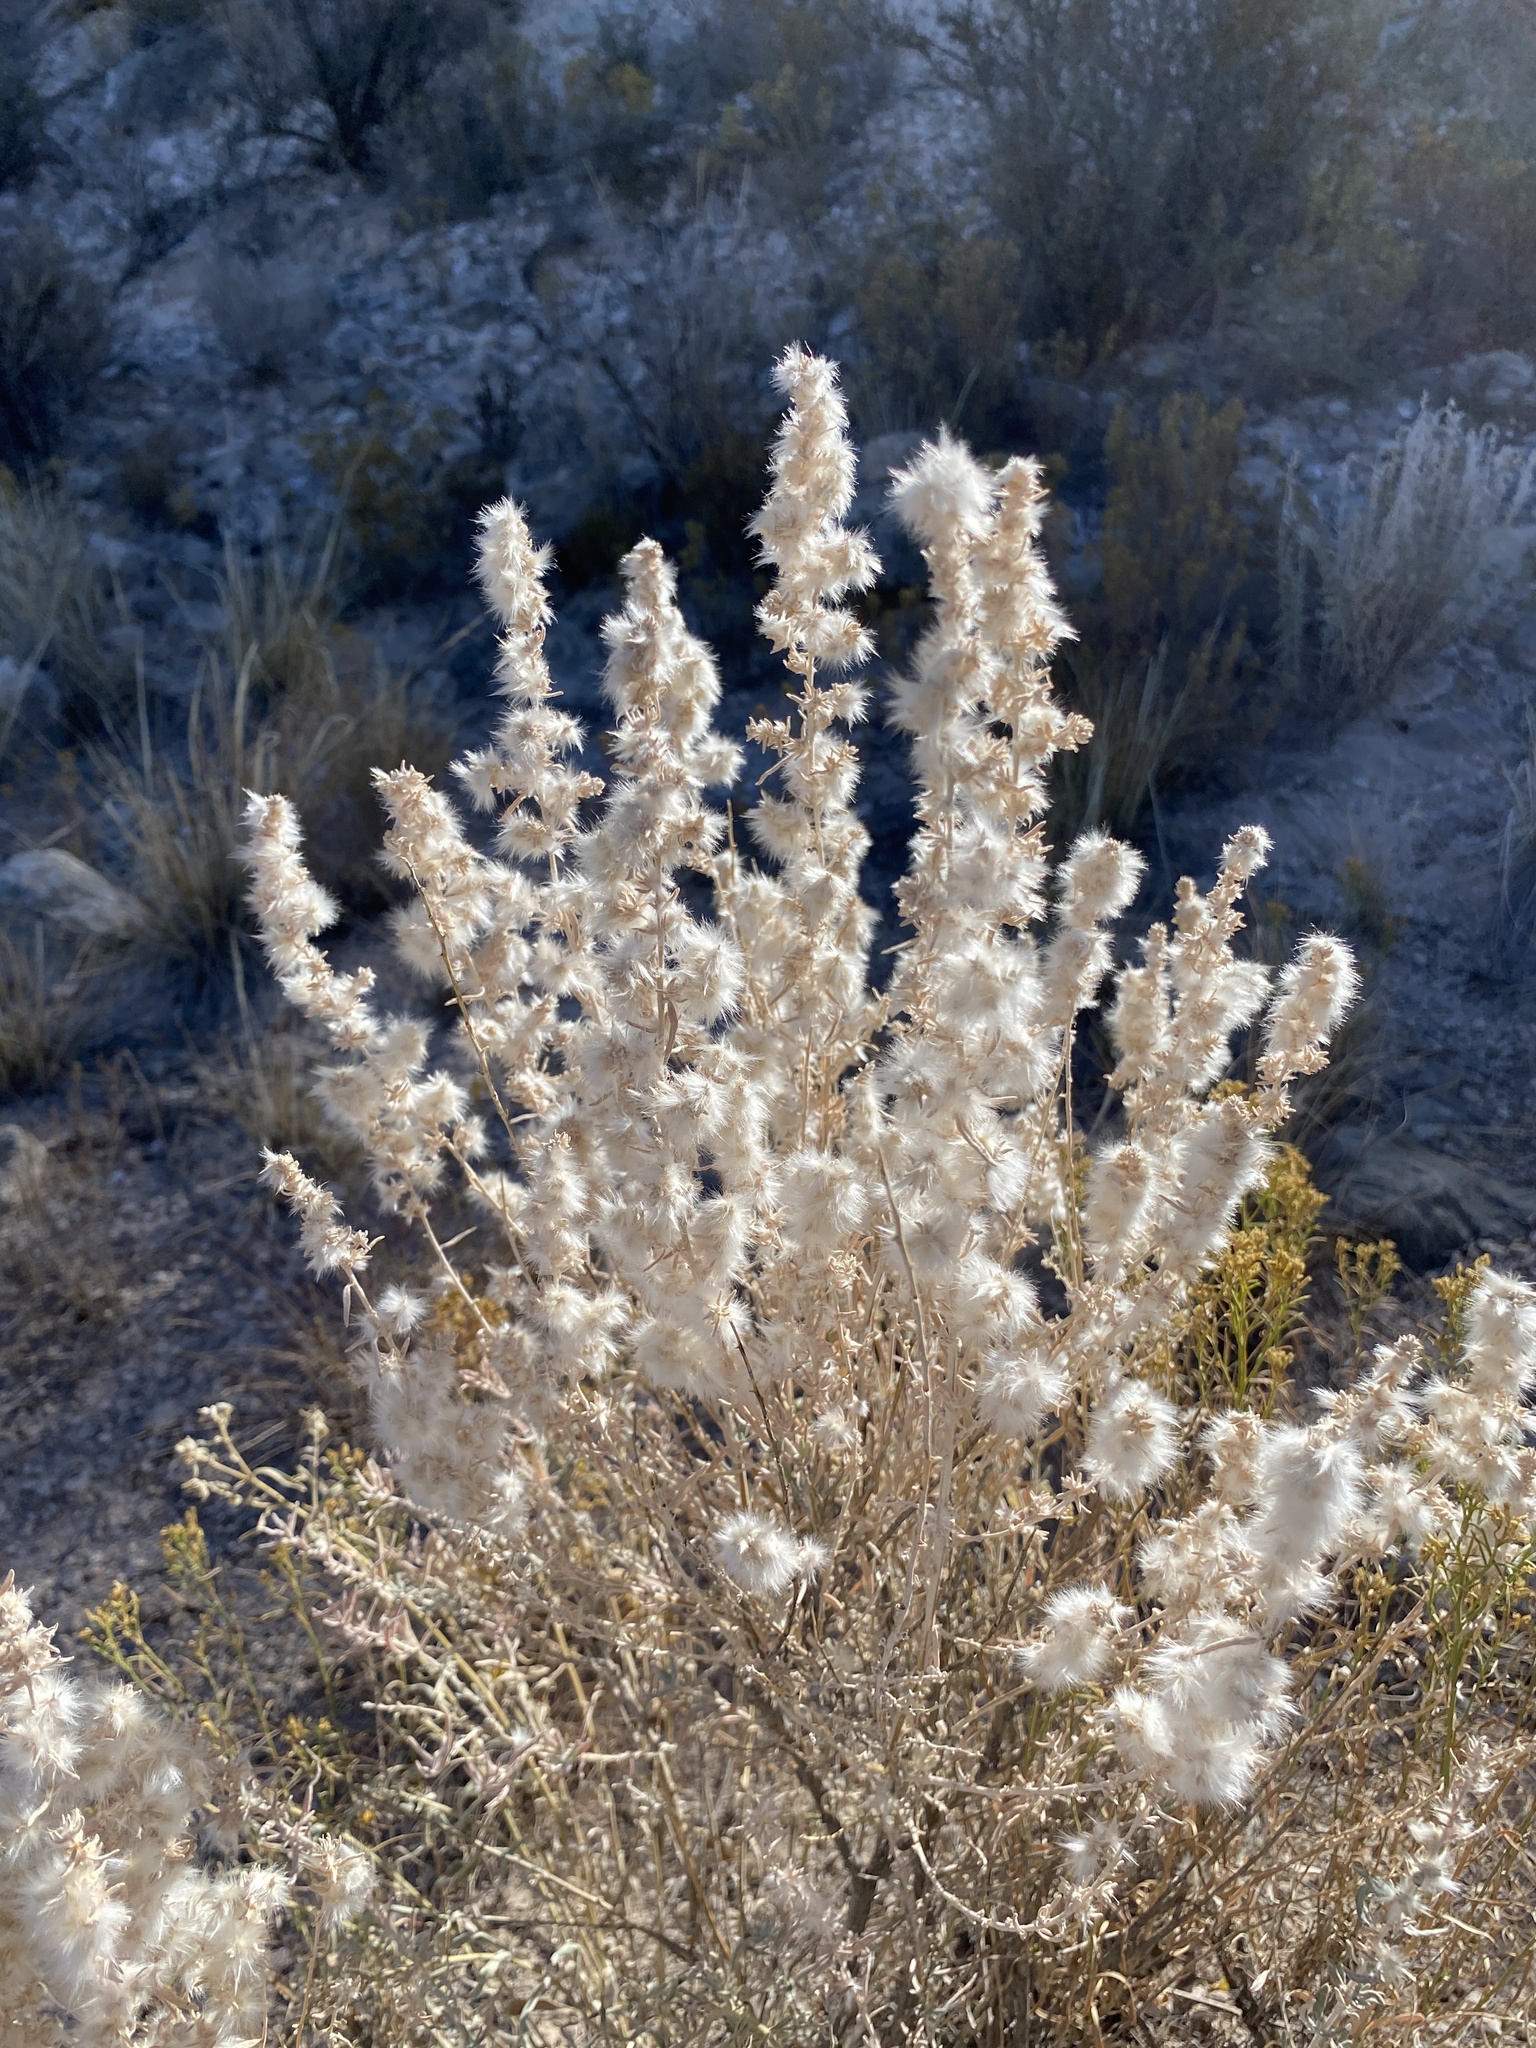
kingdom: Plantae
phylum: Tracheophyta
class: Magnoliopsida
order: Caryophyllales
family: Amaranthaceae
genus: Krascheninnikovia
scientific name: Krascheninnikovia lanata
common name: Winterfat
